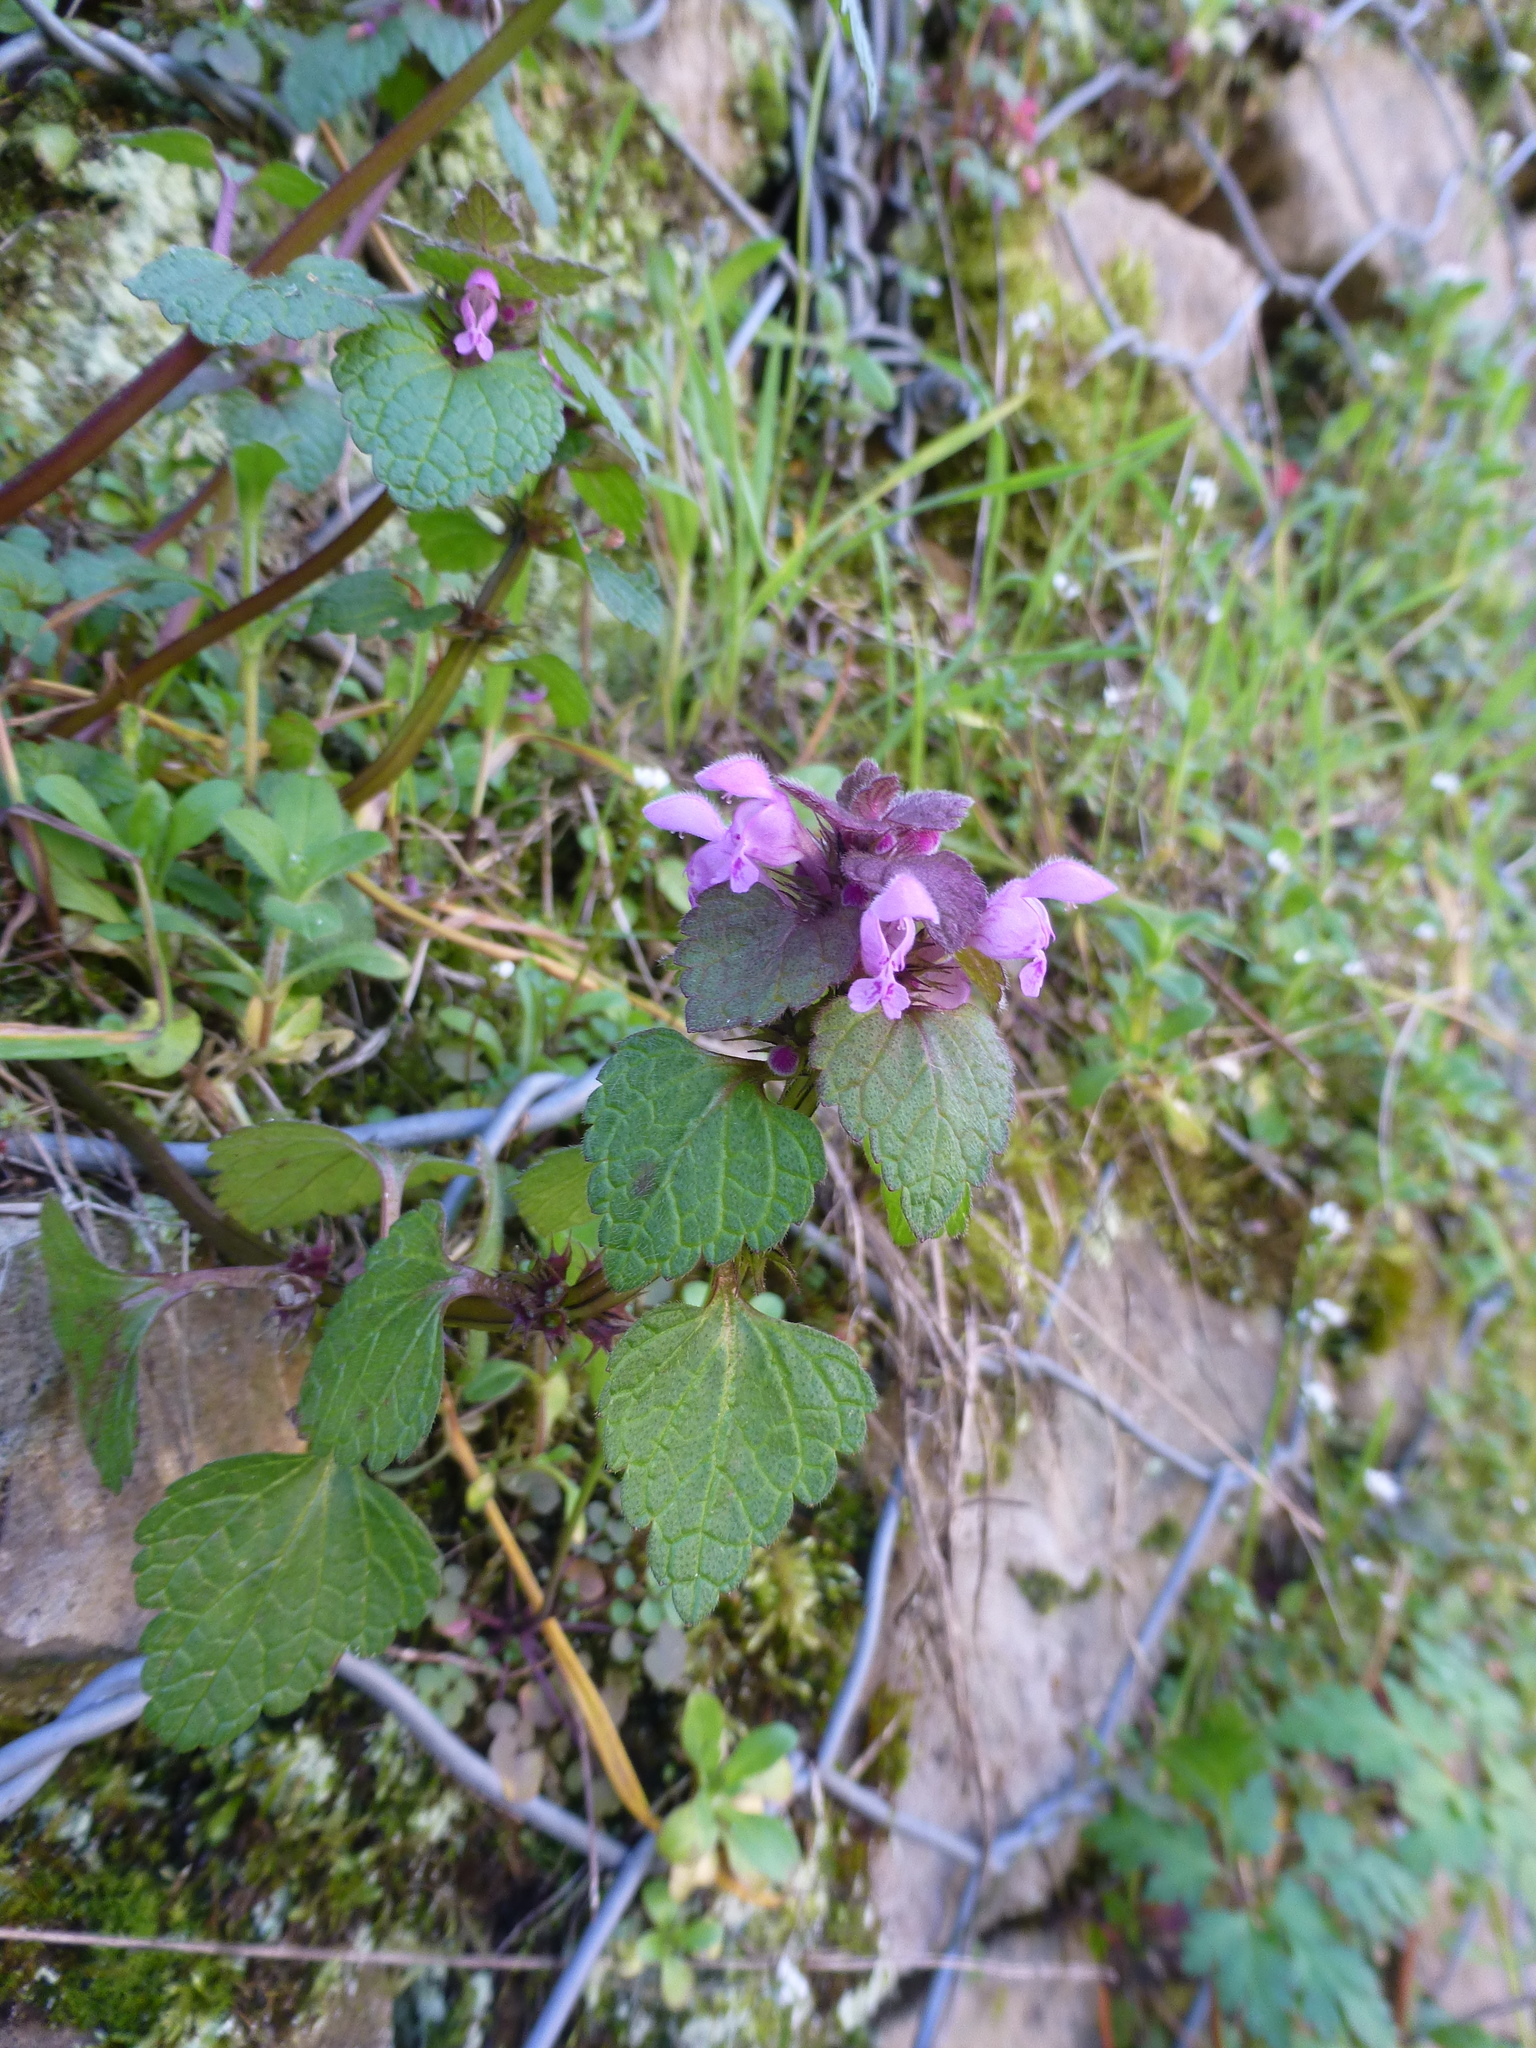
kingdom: Plantae
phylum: Tracheophyta
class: Magnoliopsida
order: Lamiales
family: Lamiaceae
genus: Lamium
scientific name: Lamium purpureum
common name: Red dead-nettle
